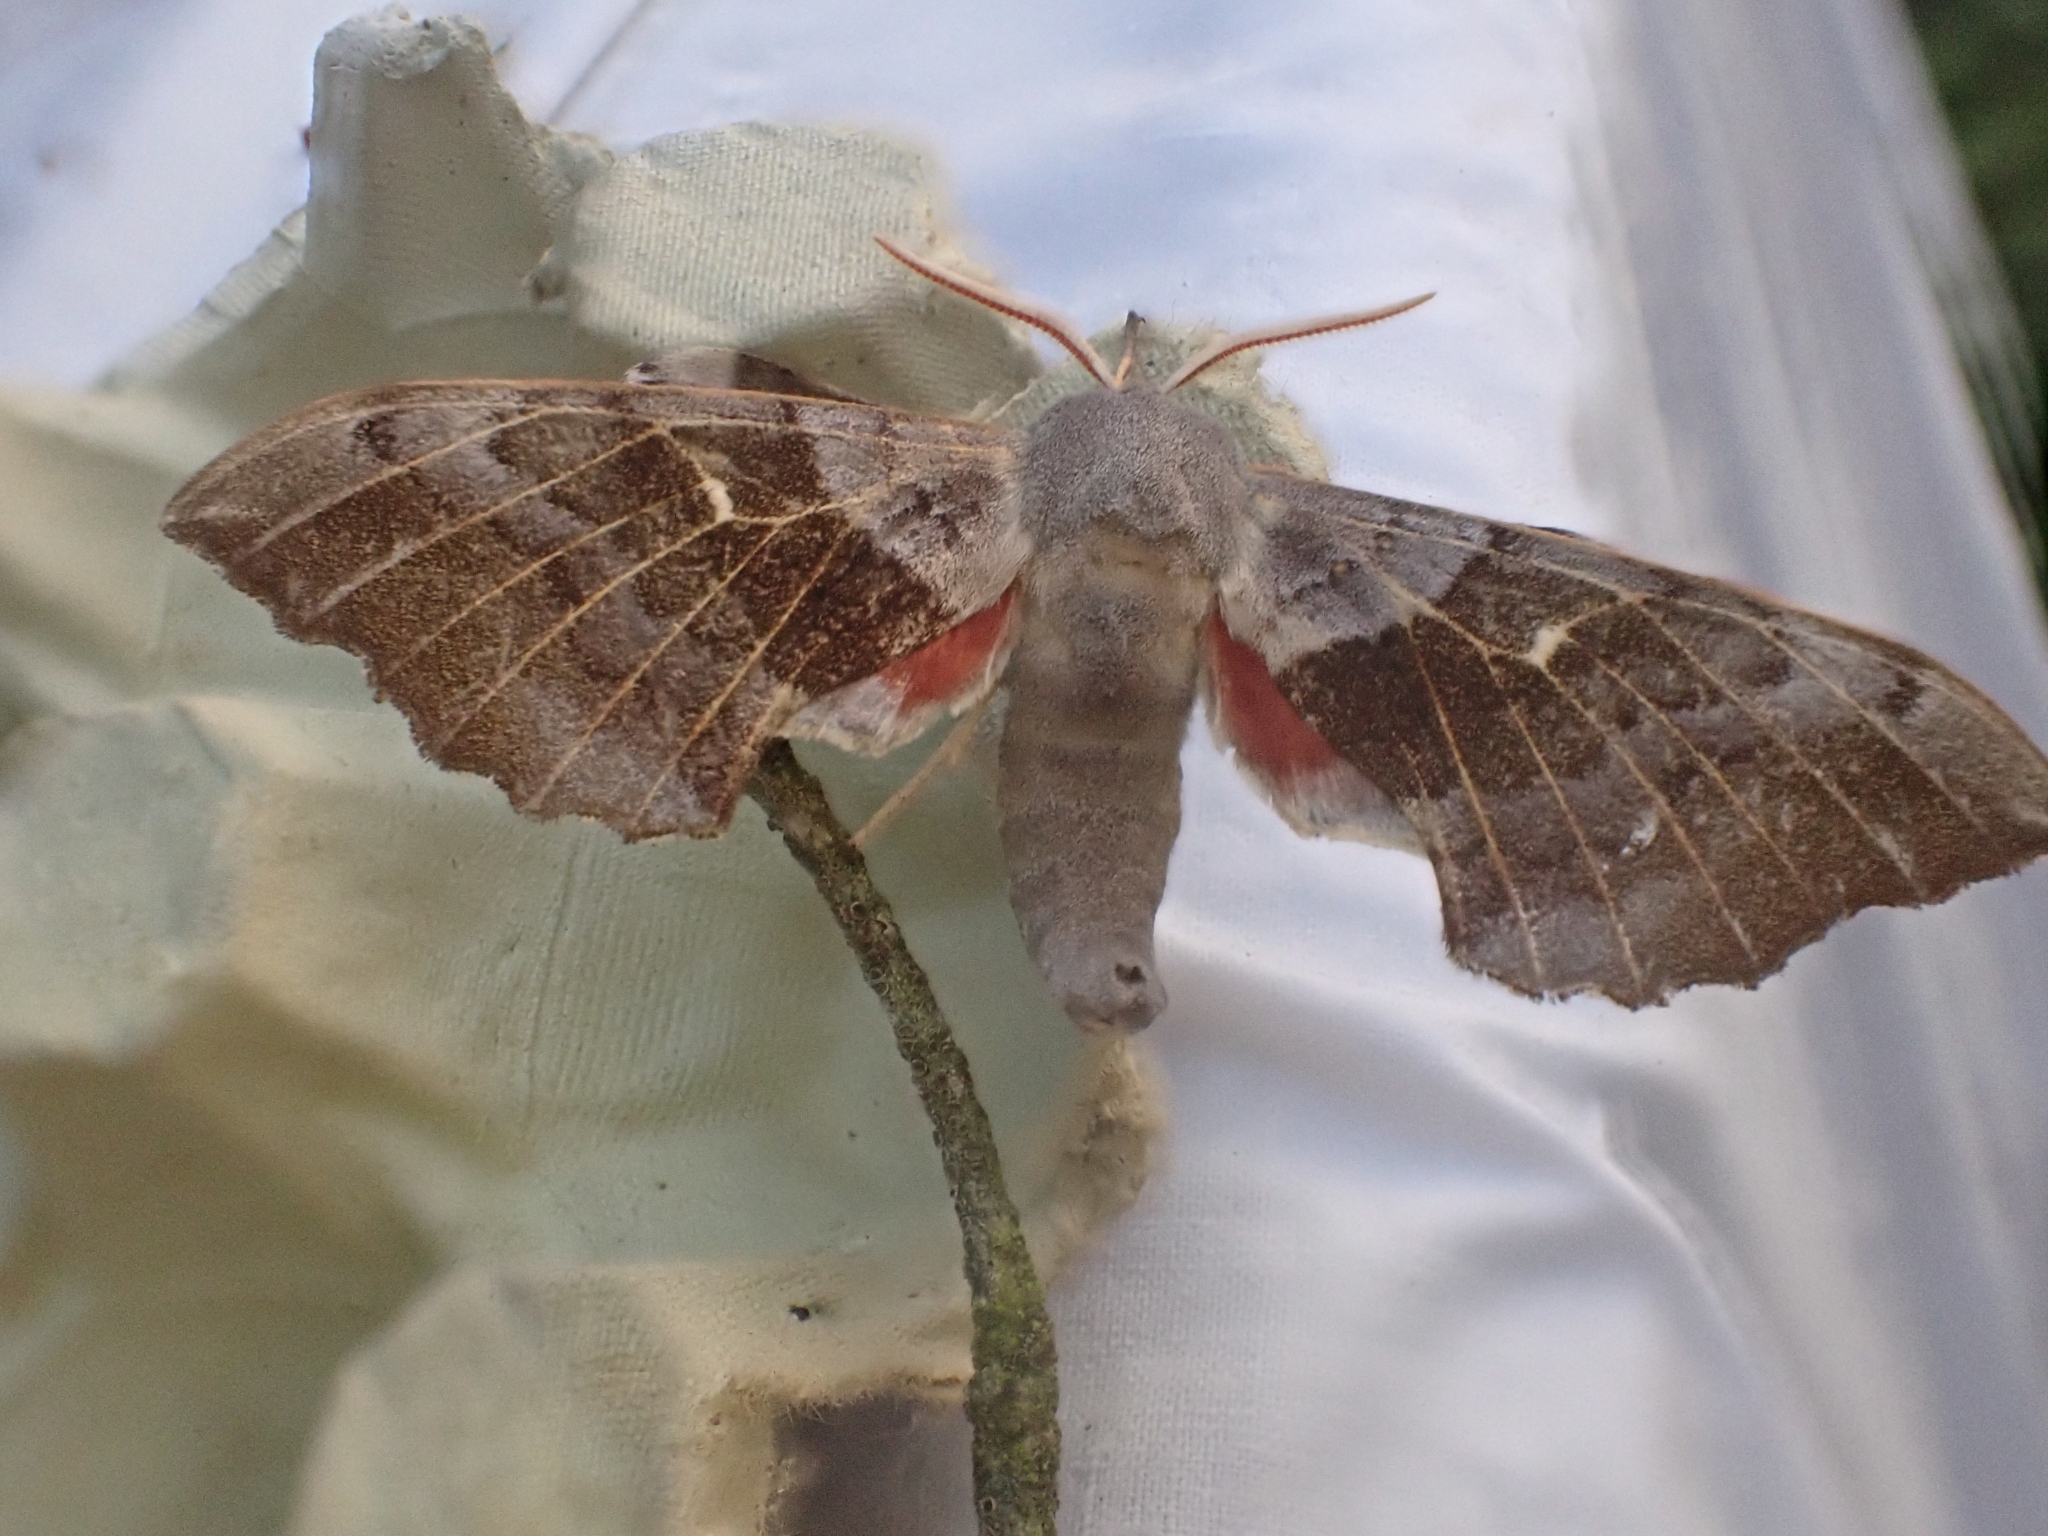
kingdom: Animalia
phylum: Arthropoda
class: Insecta
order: Lepidoptera
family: Sphingidae
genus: Laothoe
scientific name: Laothoe populi
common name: Poplar hawk-moth
